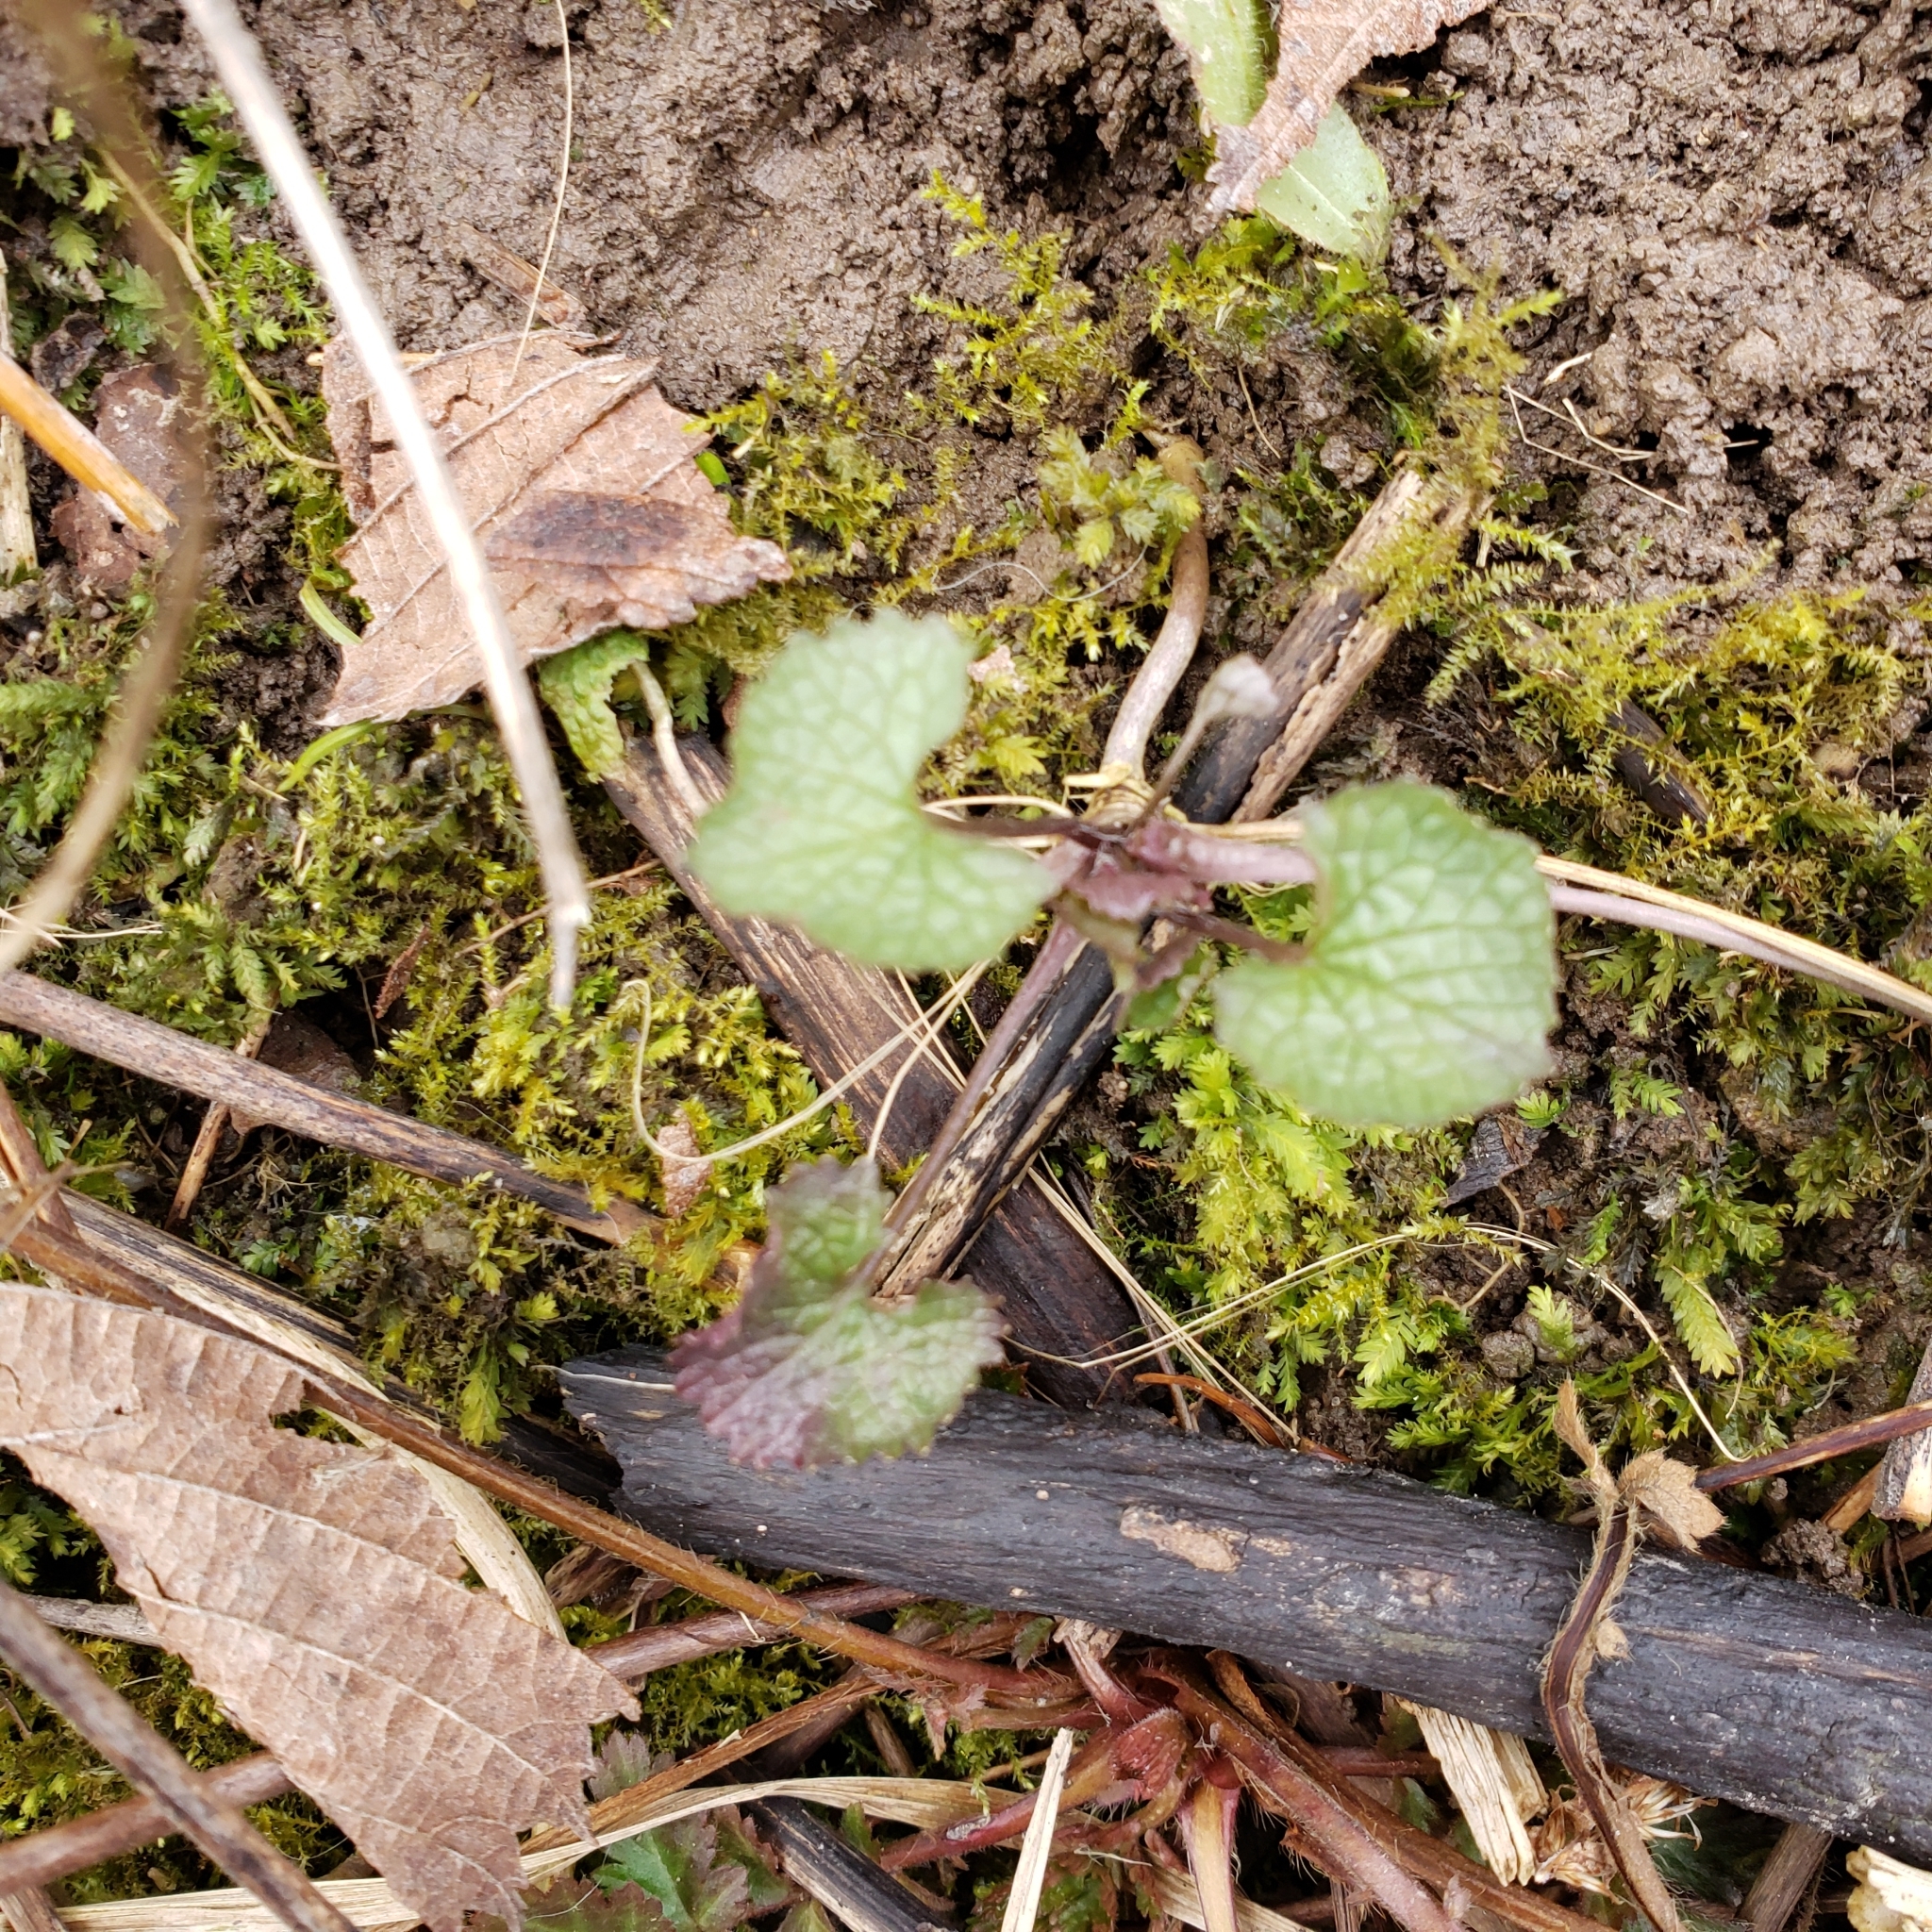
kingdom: Plantae
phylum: Tracheophyta
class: Magnoliopsida
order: Brassicales
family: Brassicaceae
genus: Alliaria
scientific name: Alliaria petiolata
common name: Garlic mustard
